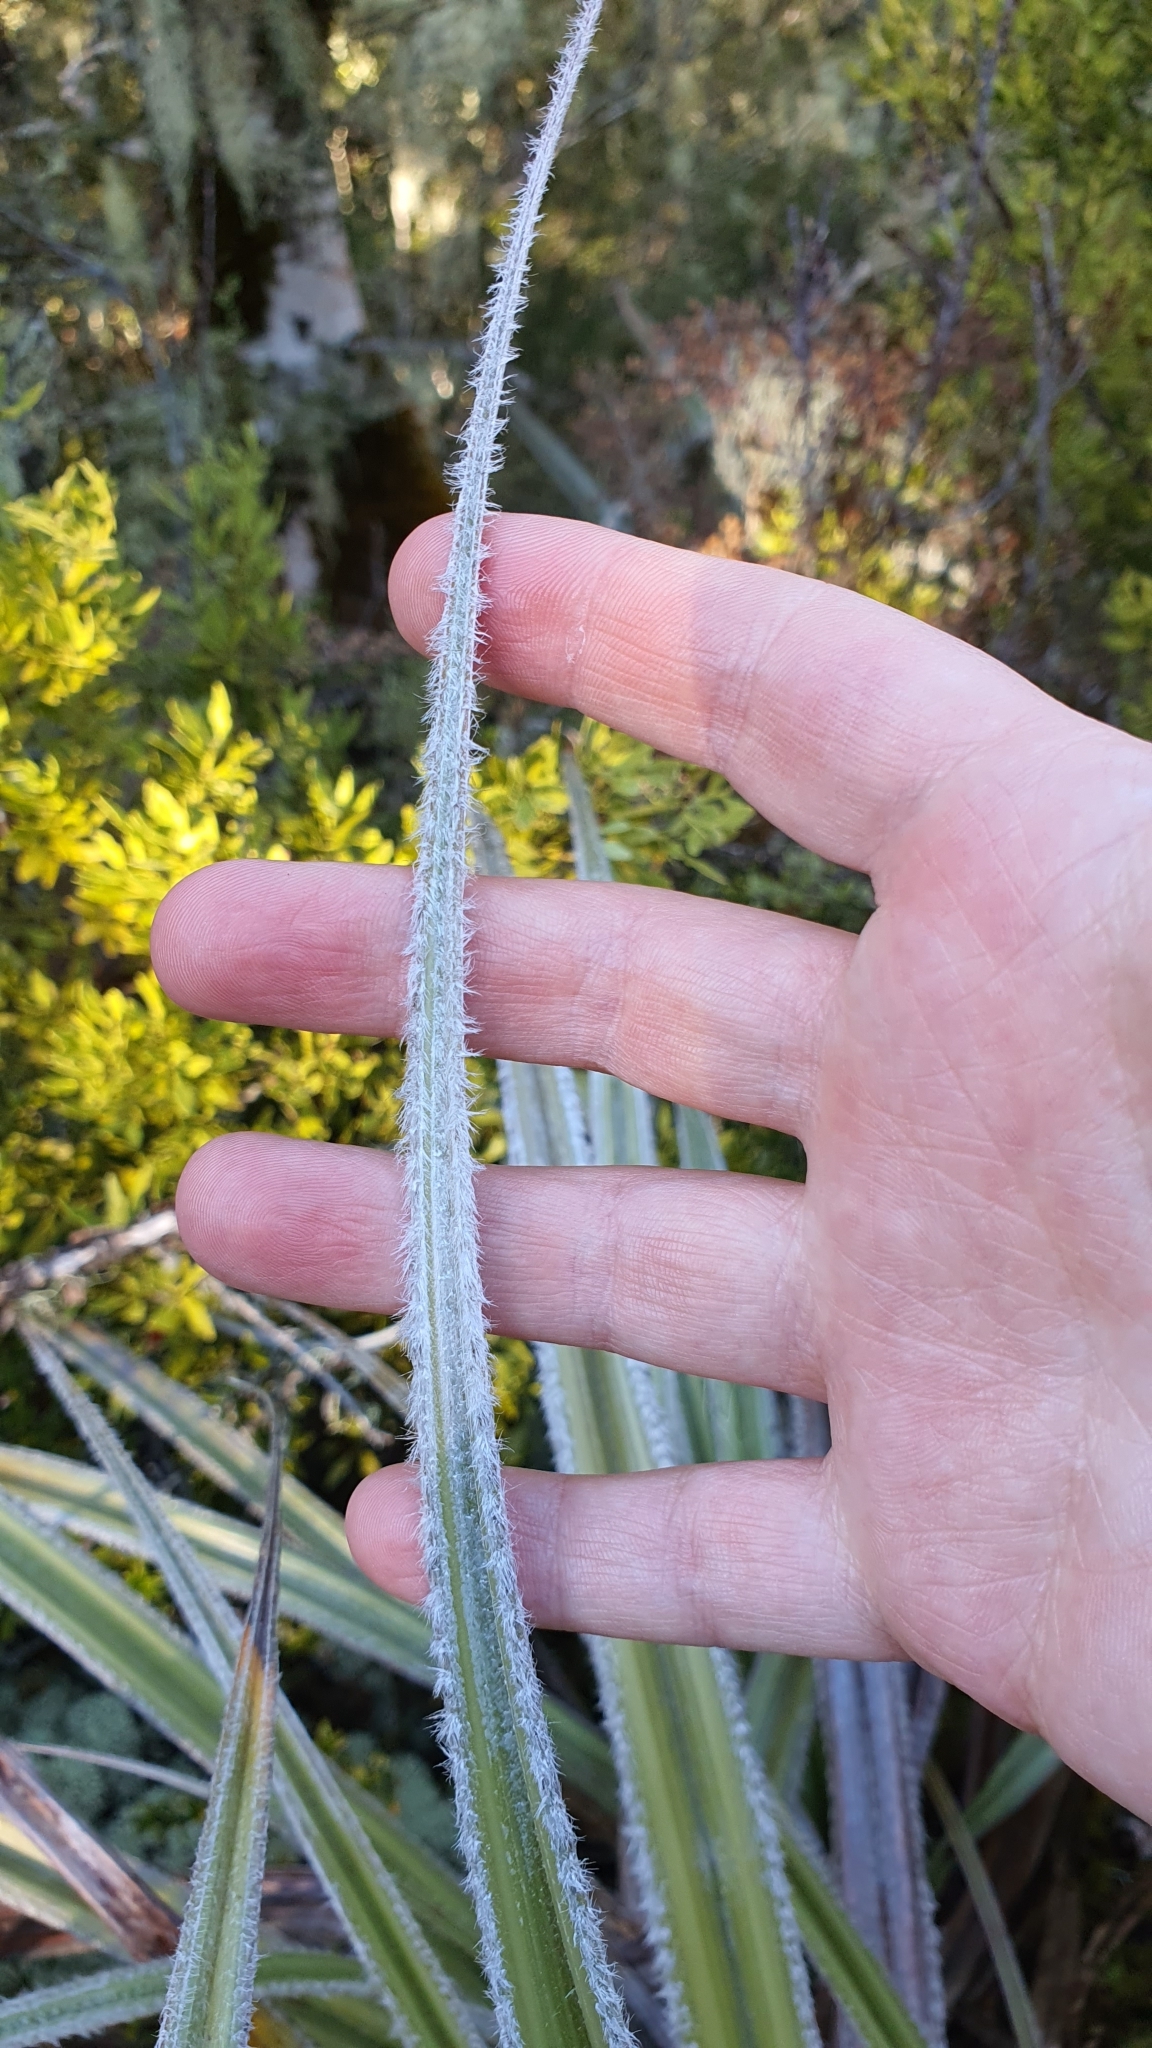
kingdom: Plantae
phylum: Tracheophyta
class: Liliopsida
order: Asparagales
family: Asteliaceae
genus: Astelia
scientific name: Astelia nervosa
